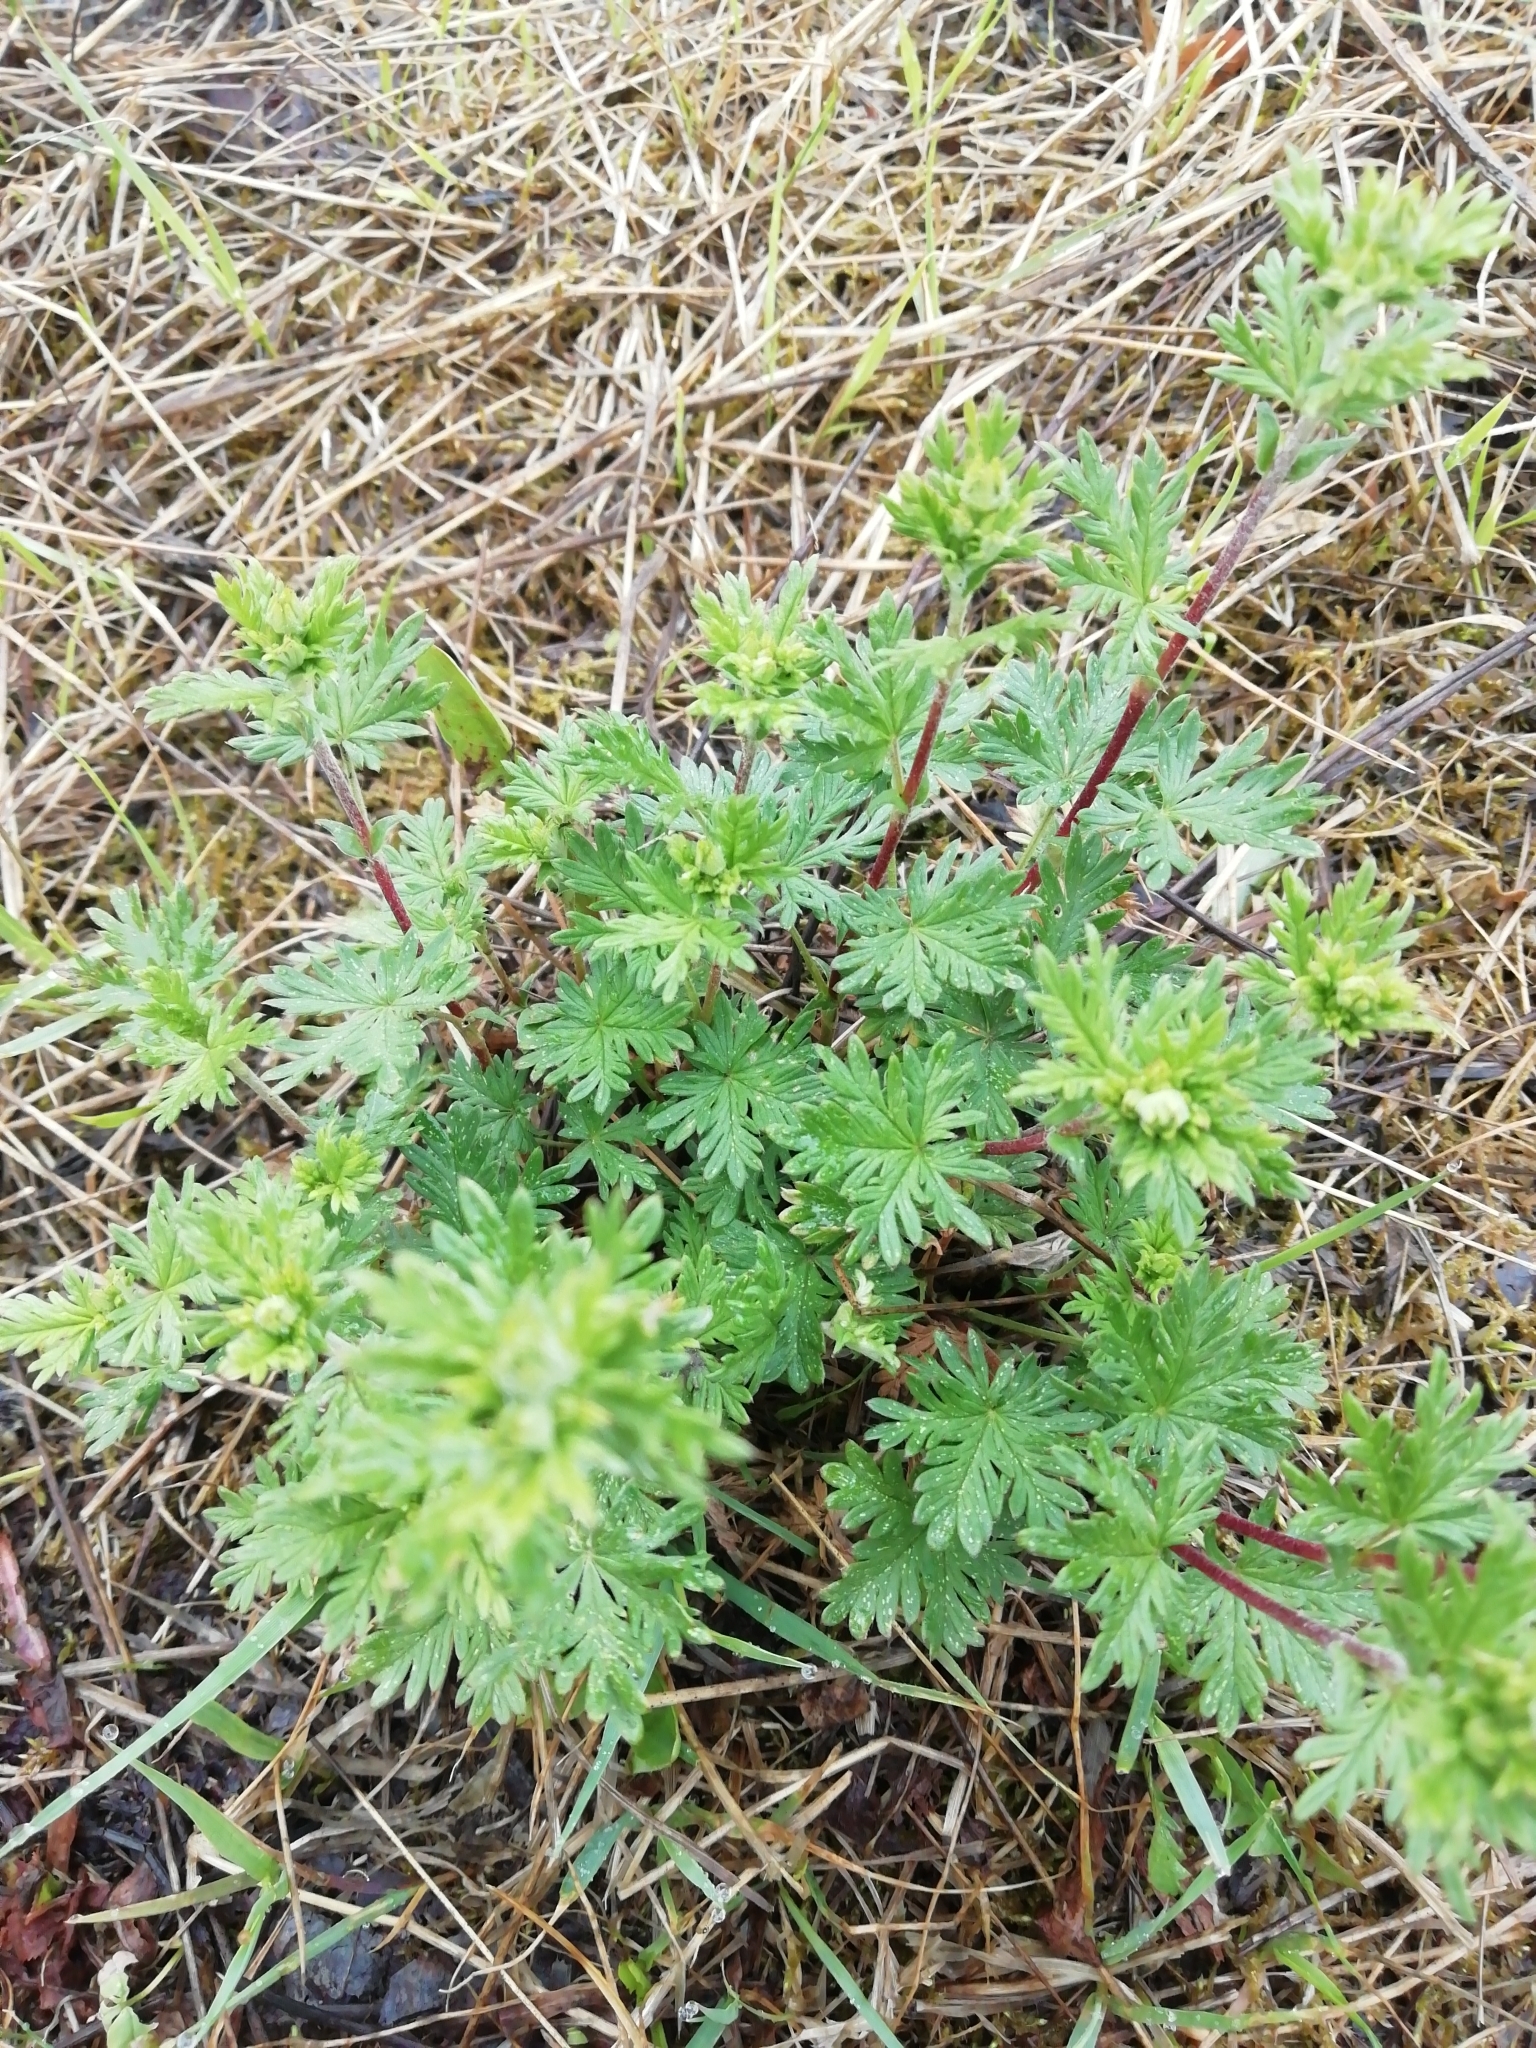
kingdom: Plantae
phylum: Tracheophyta
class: Magnoliopsida
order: Rosales
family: Rosaceae
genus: Potentilla
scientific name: Potentilla argentea
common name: Hoary cinquefoil
